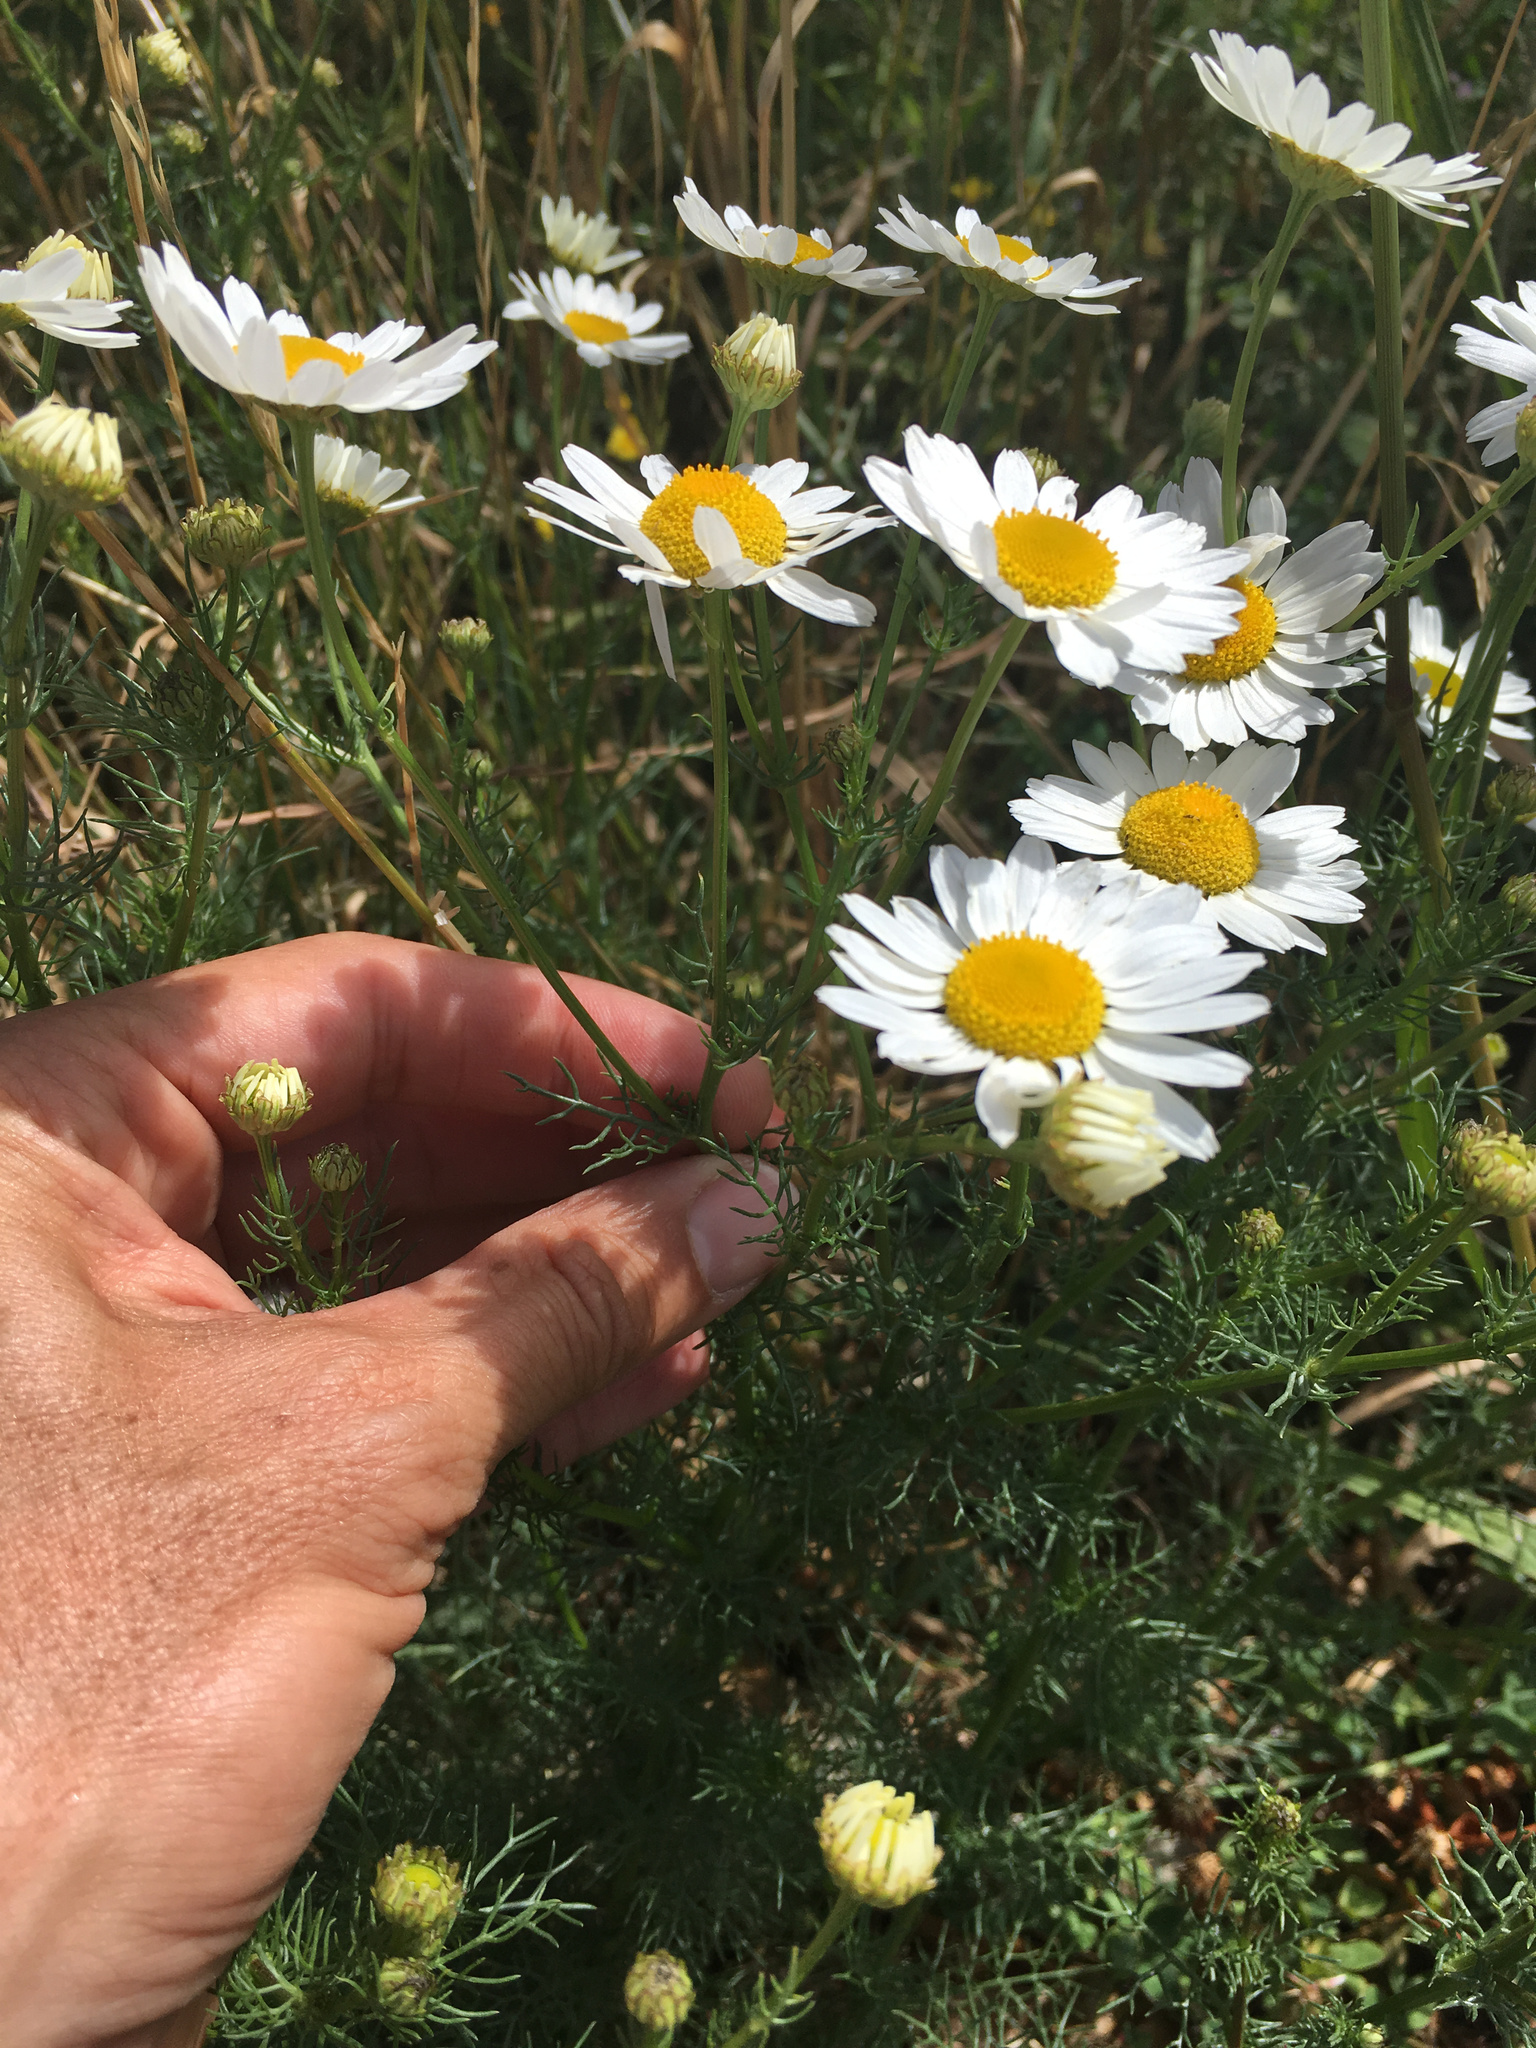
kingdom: Plantae
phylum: Tracheophyta
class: Magnoliopsida
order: Asterales
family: Asteraceae
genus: Tripleurospermum
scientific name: Tripleurospermum inodorum
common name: Scentless mayweed
